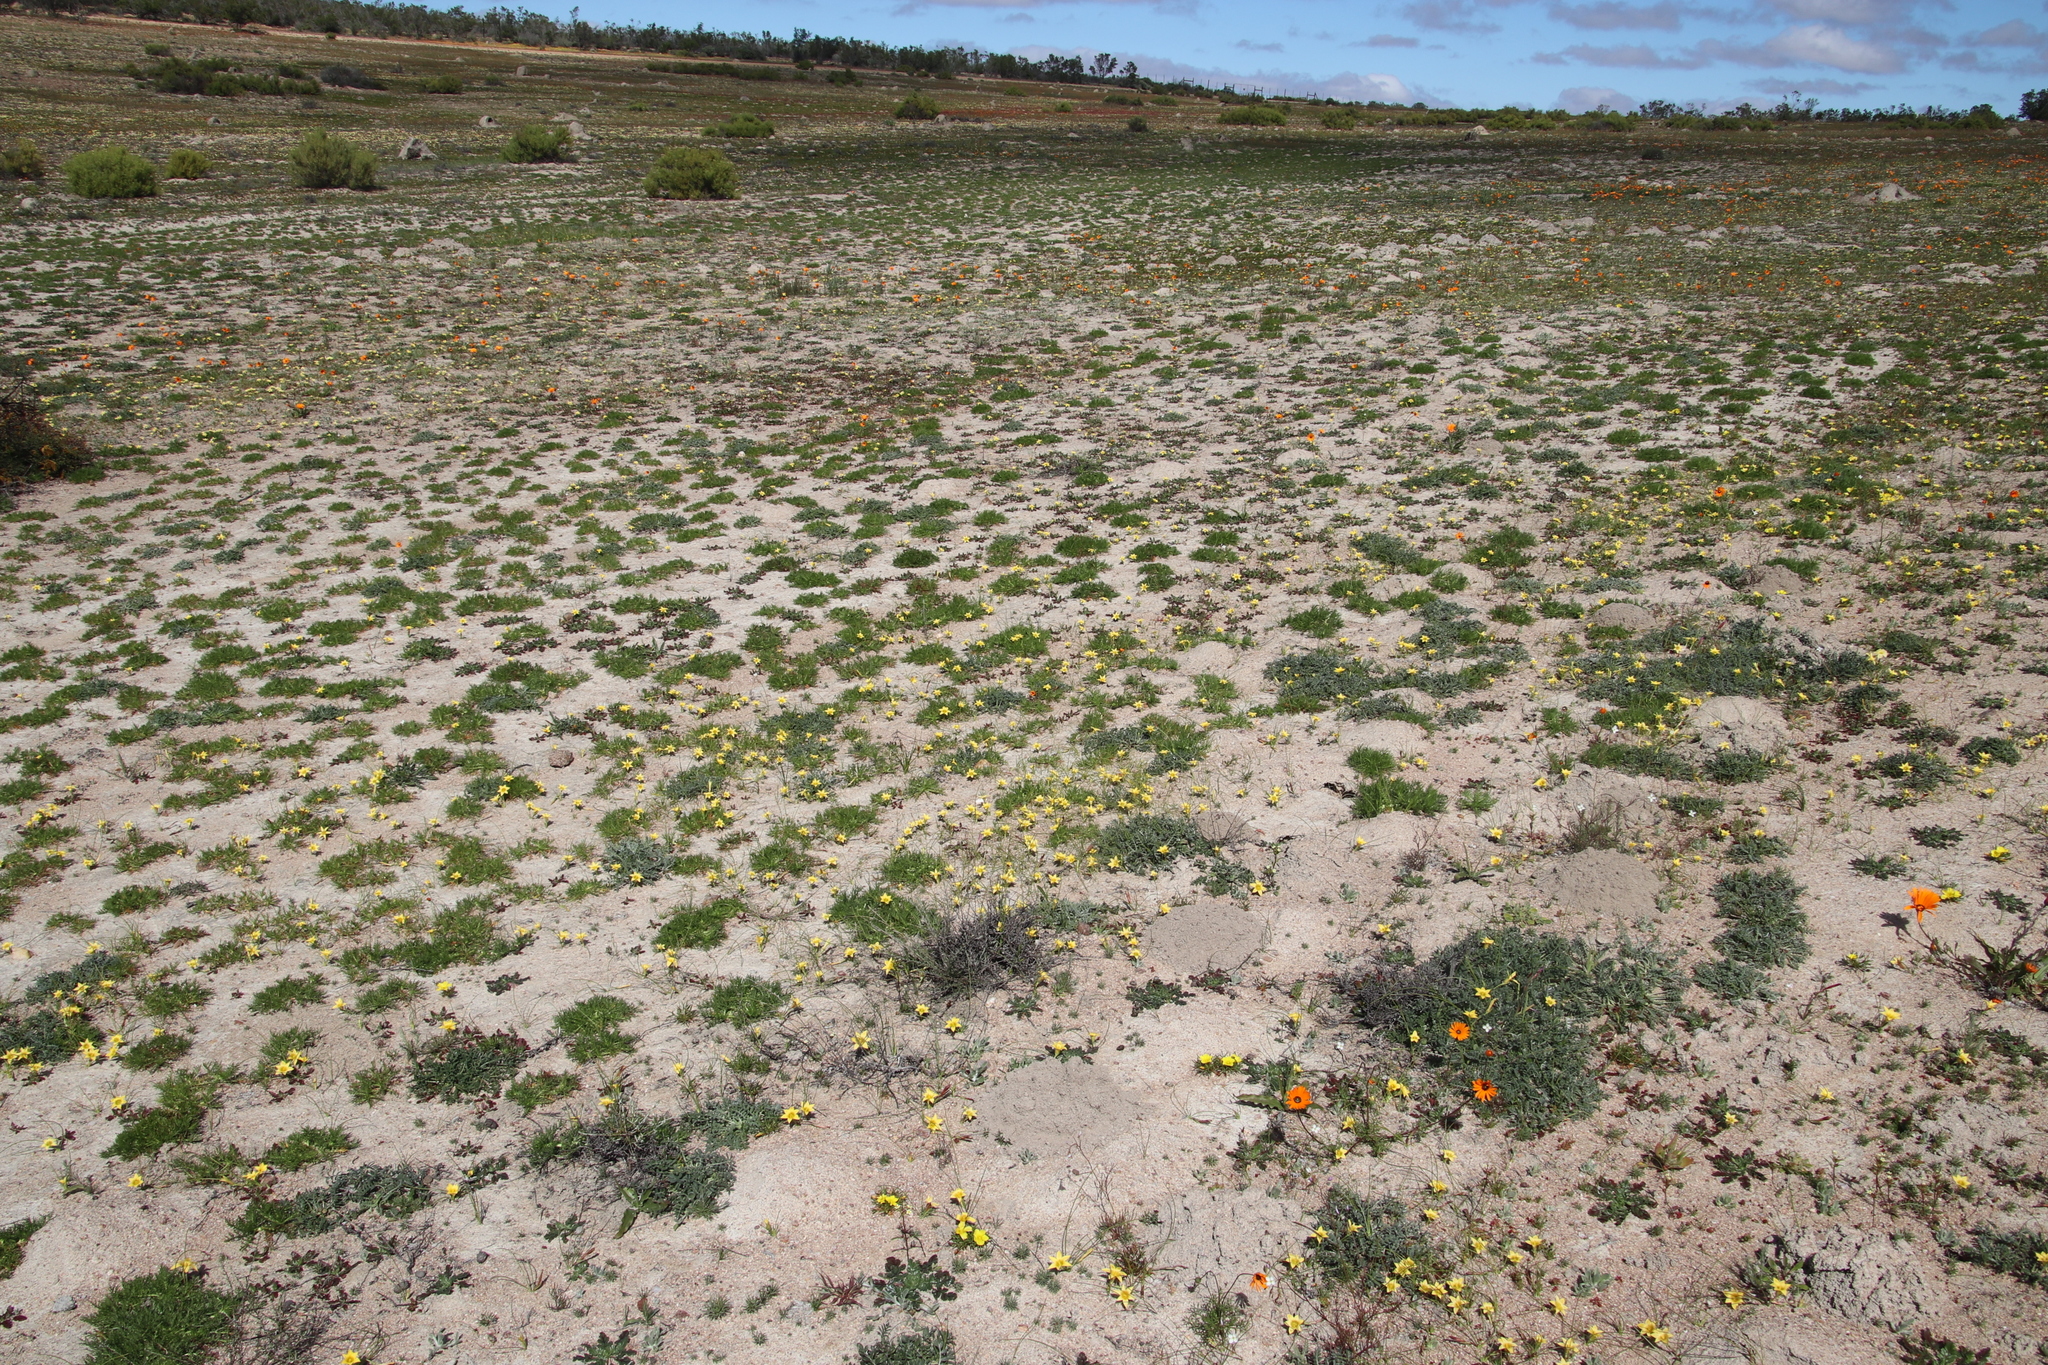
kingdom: Plantae
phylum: Tracheophyta
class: Liliopsida
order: Asparagales
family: Iridaceae
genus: Romulea
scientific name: Romulea citrina
